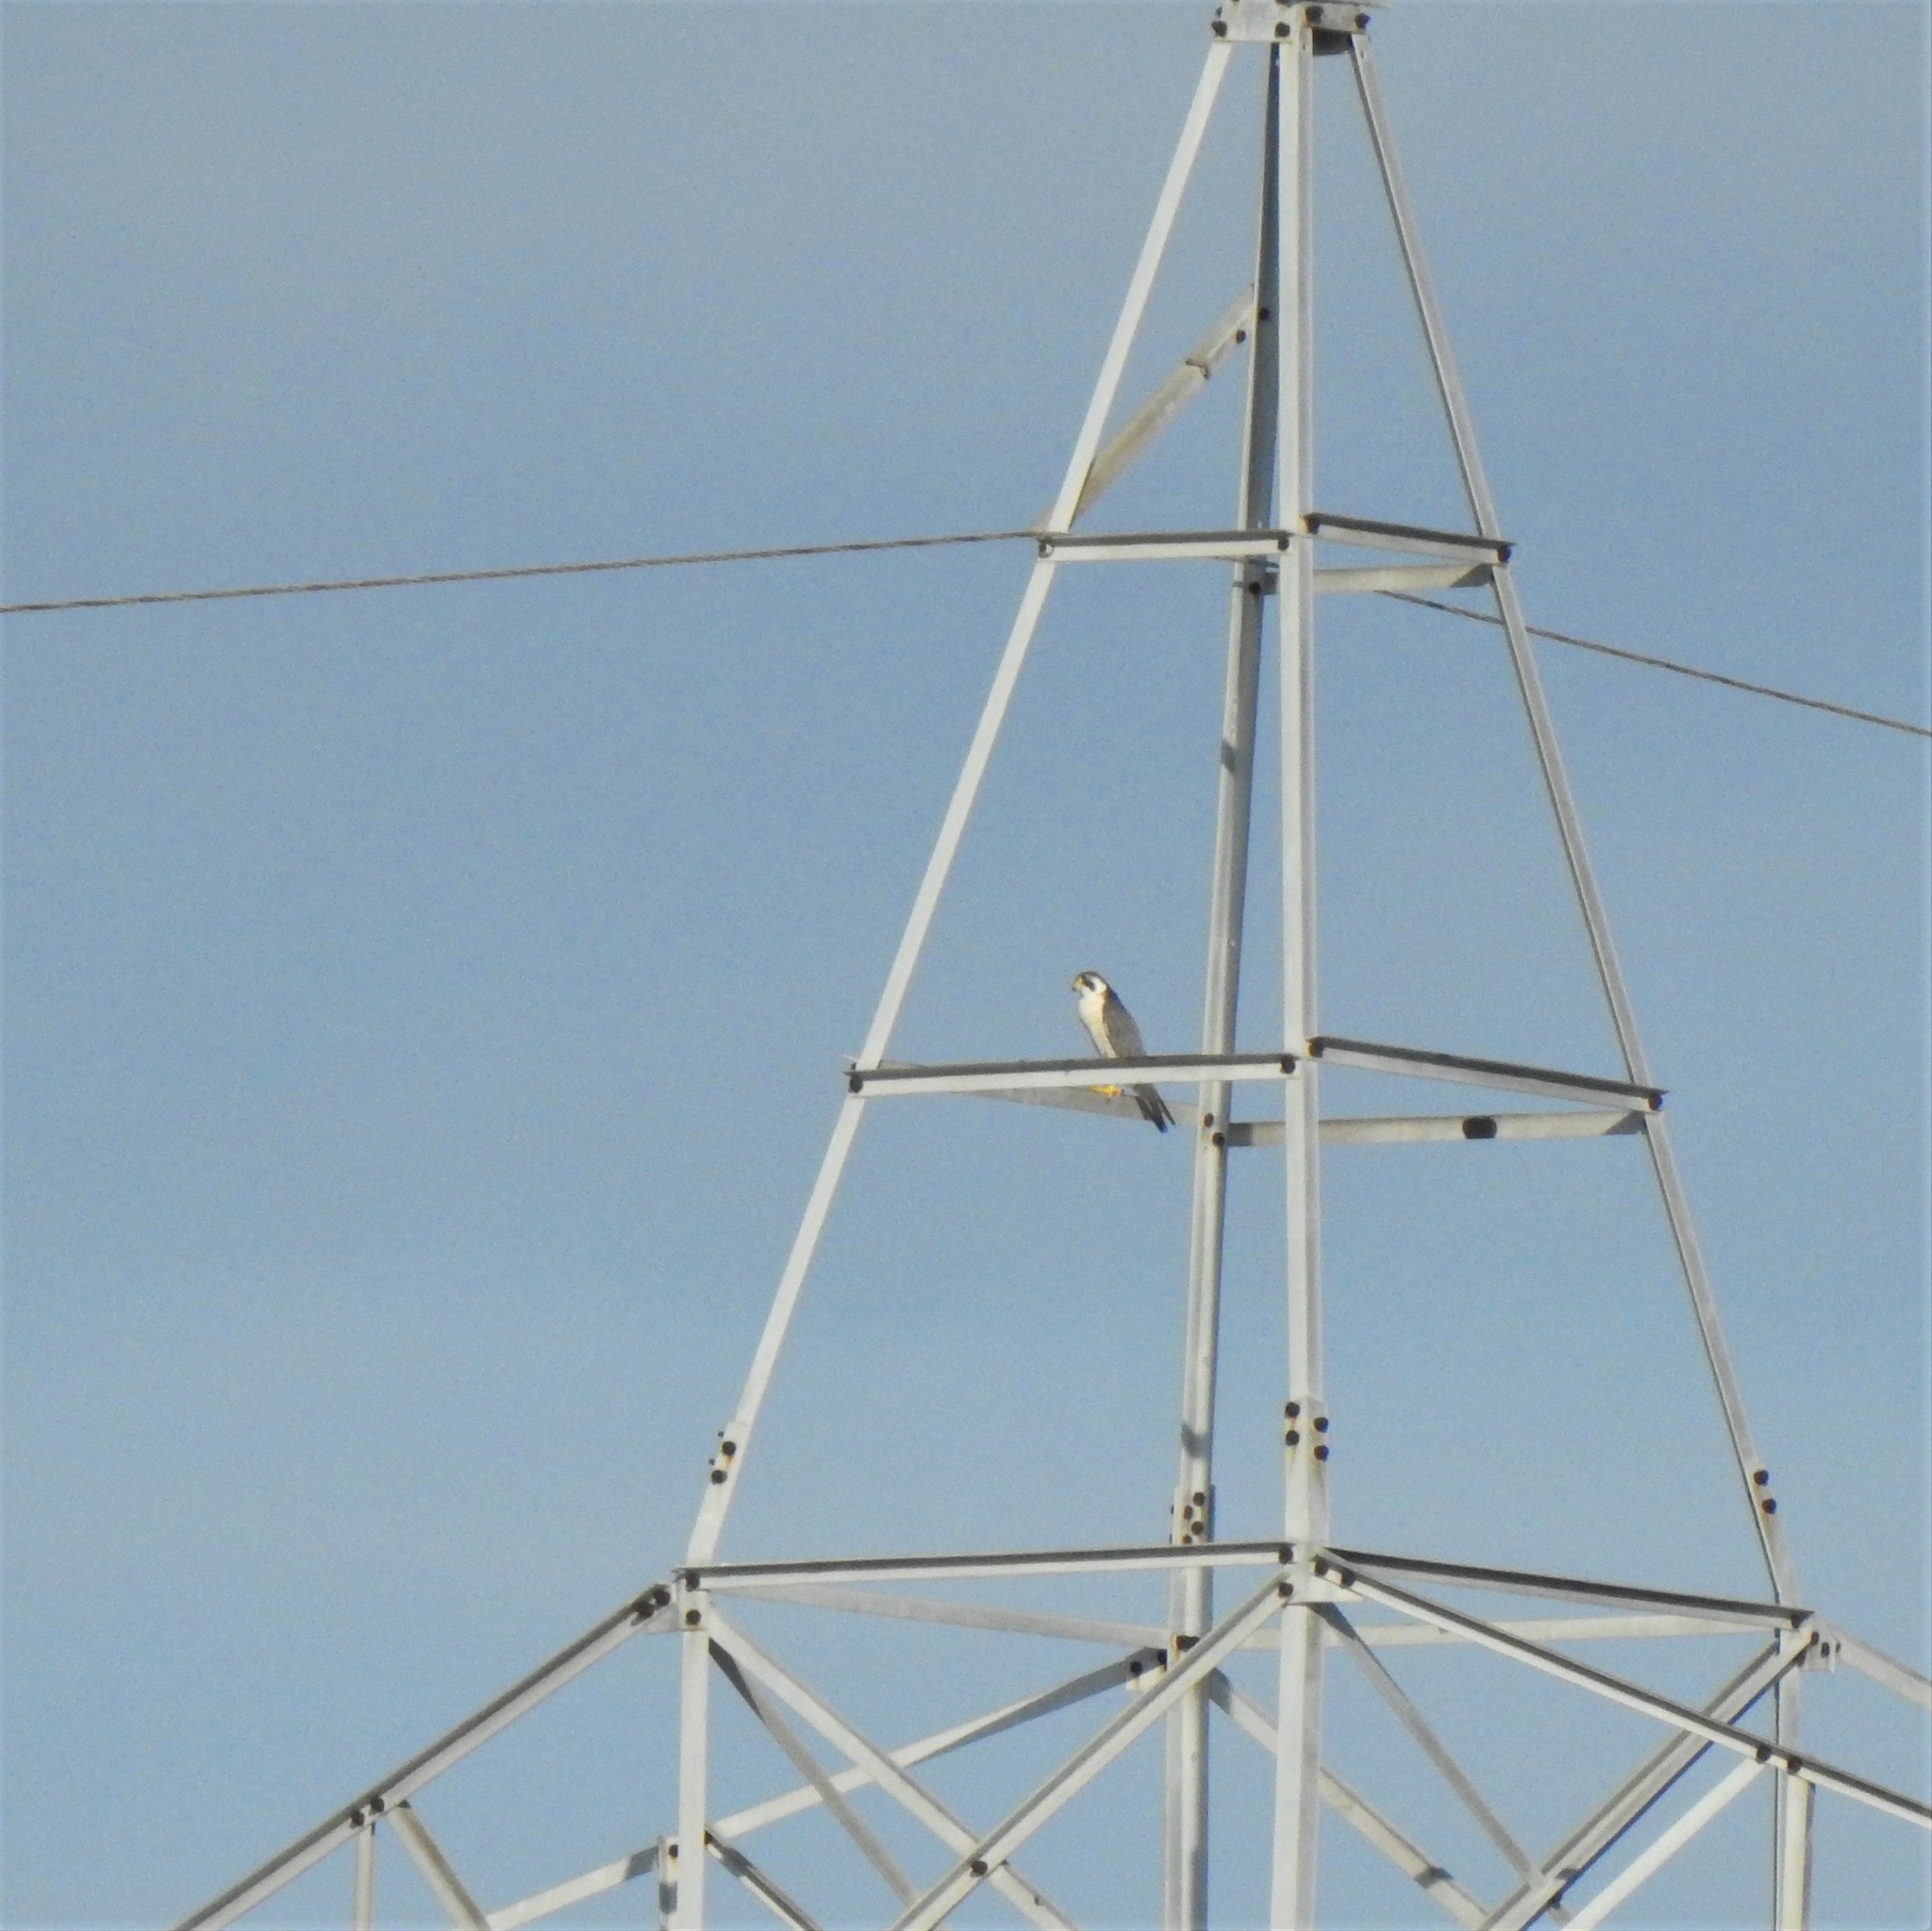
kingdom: Animalia
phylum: Chordata
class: Aves
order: Falconiformes
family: Falconidae
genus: Falco
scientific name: Falco peregrinus
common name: Peregrine falcon
